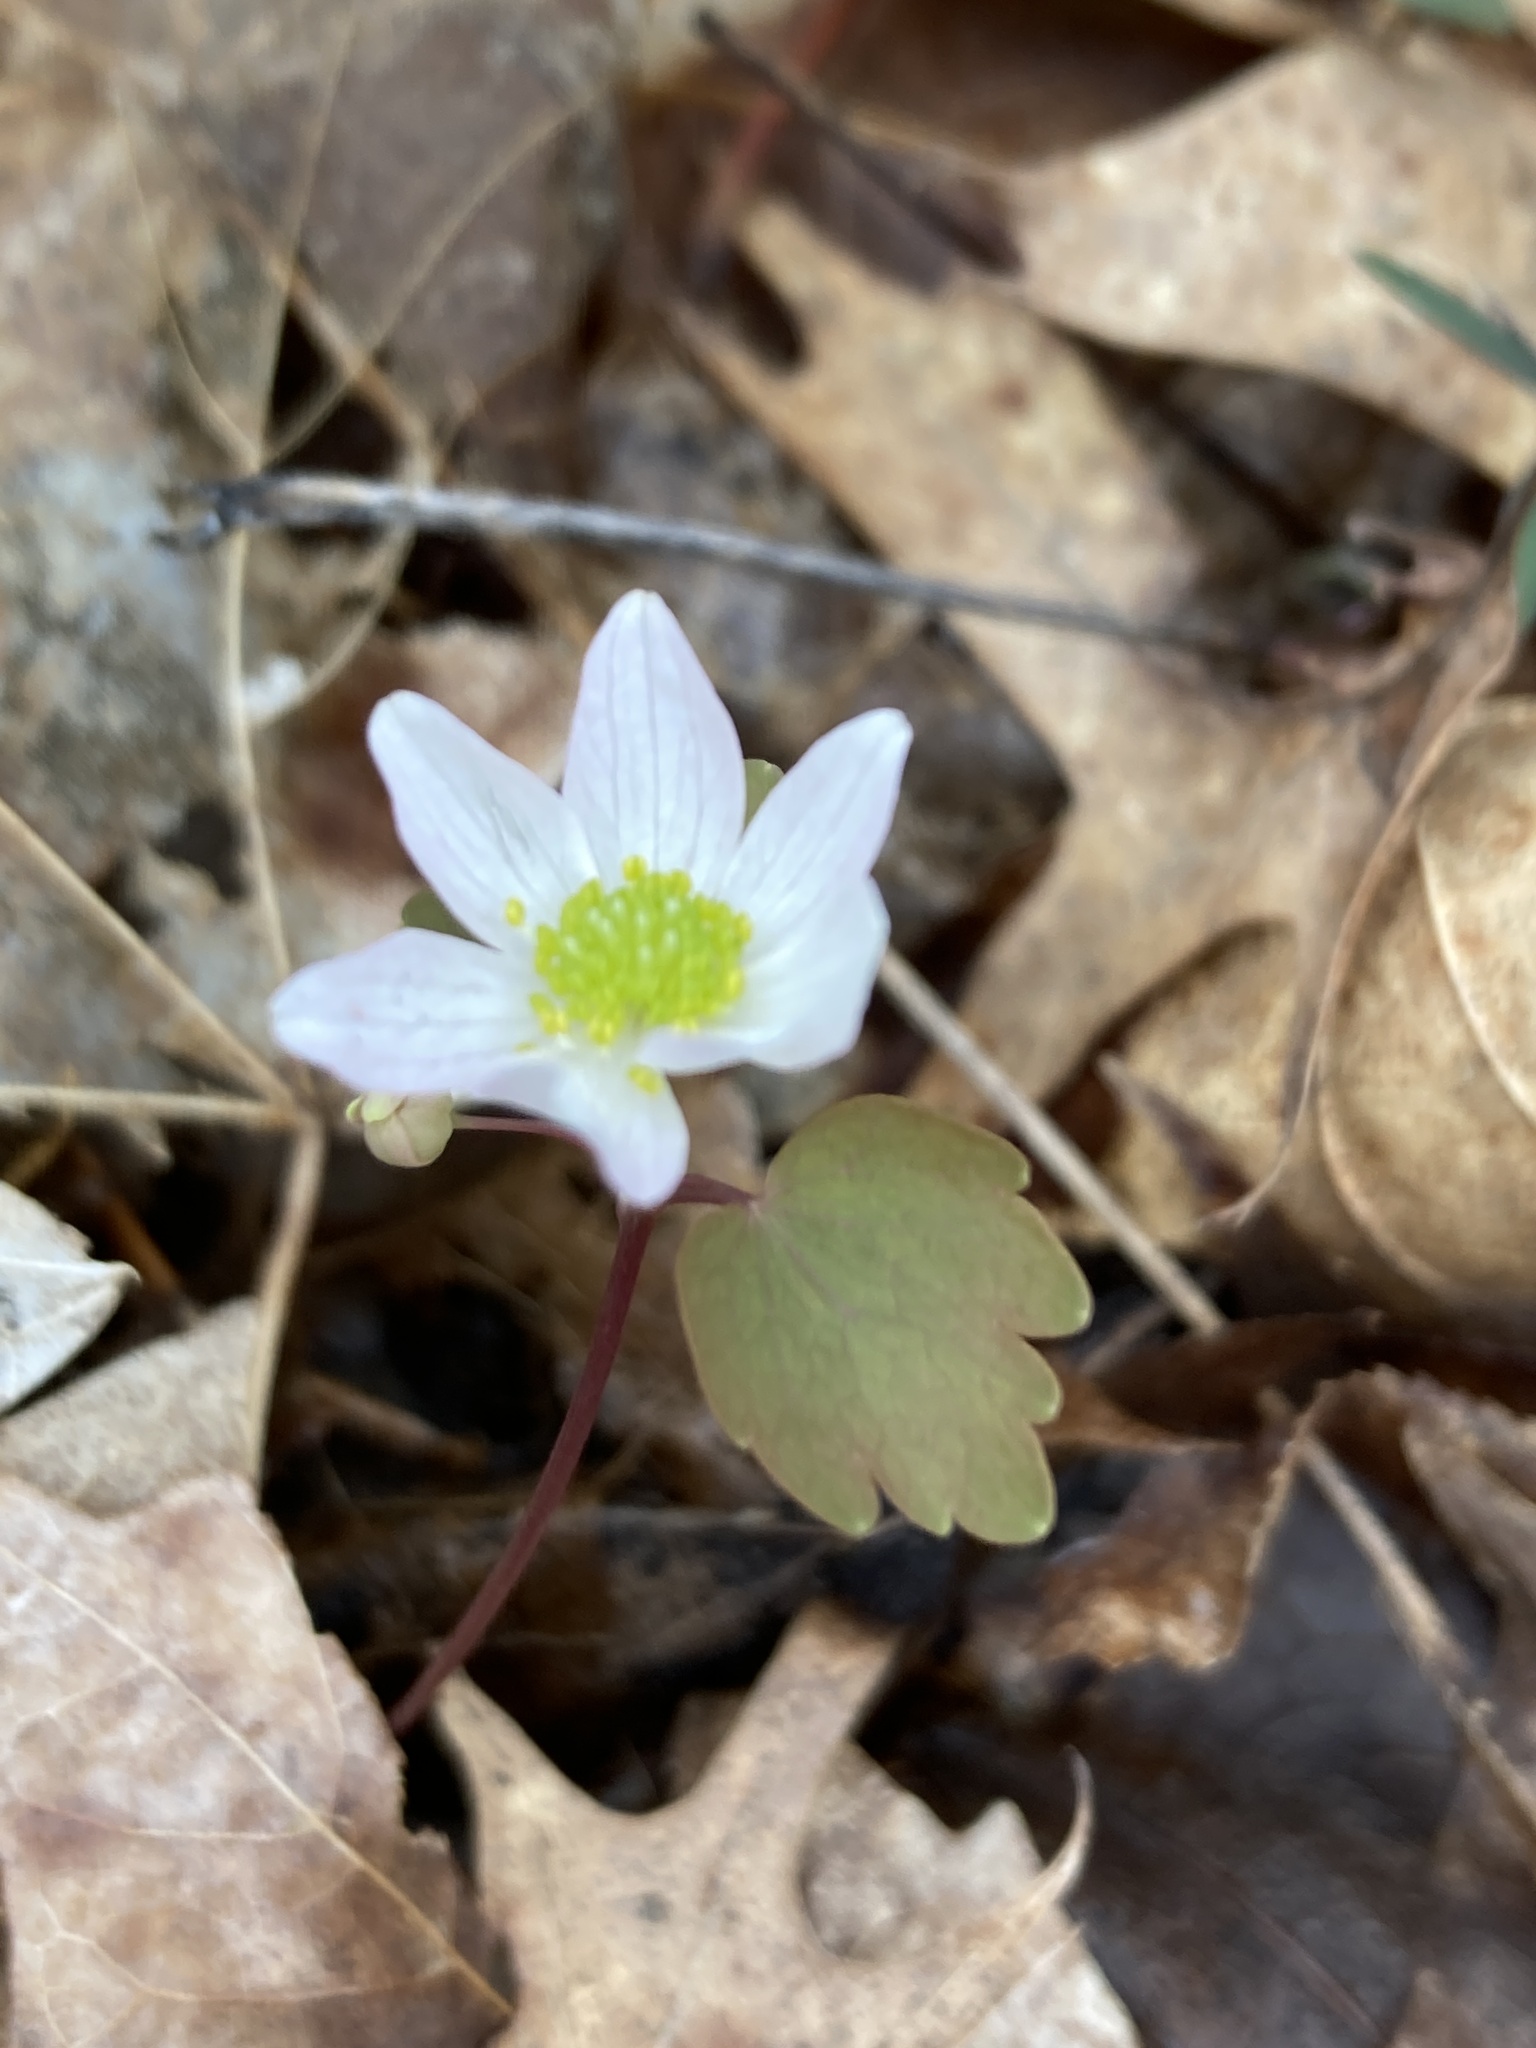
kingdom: Plantae
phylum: Tracheophyta
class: Magnoliopsida
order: Ranunculales
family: Ranunculaceae
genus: Thalictrum
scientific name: Thalictrum thalictroides
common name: Rue-anemone
